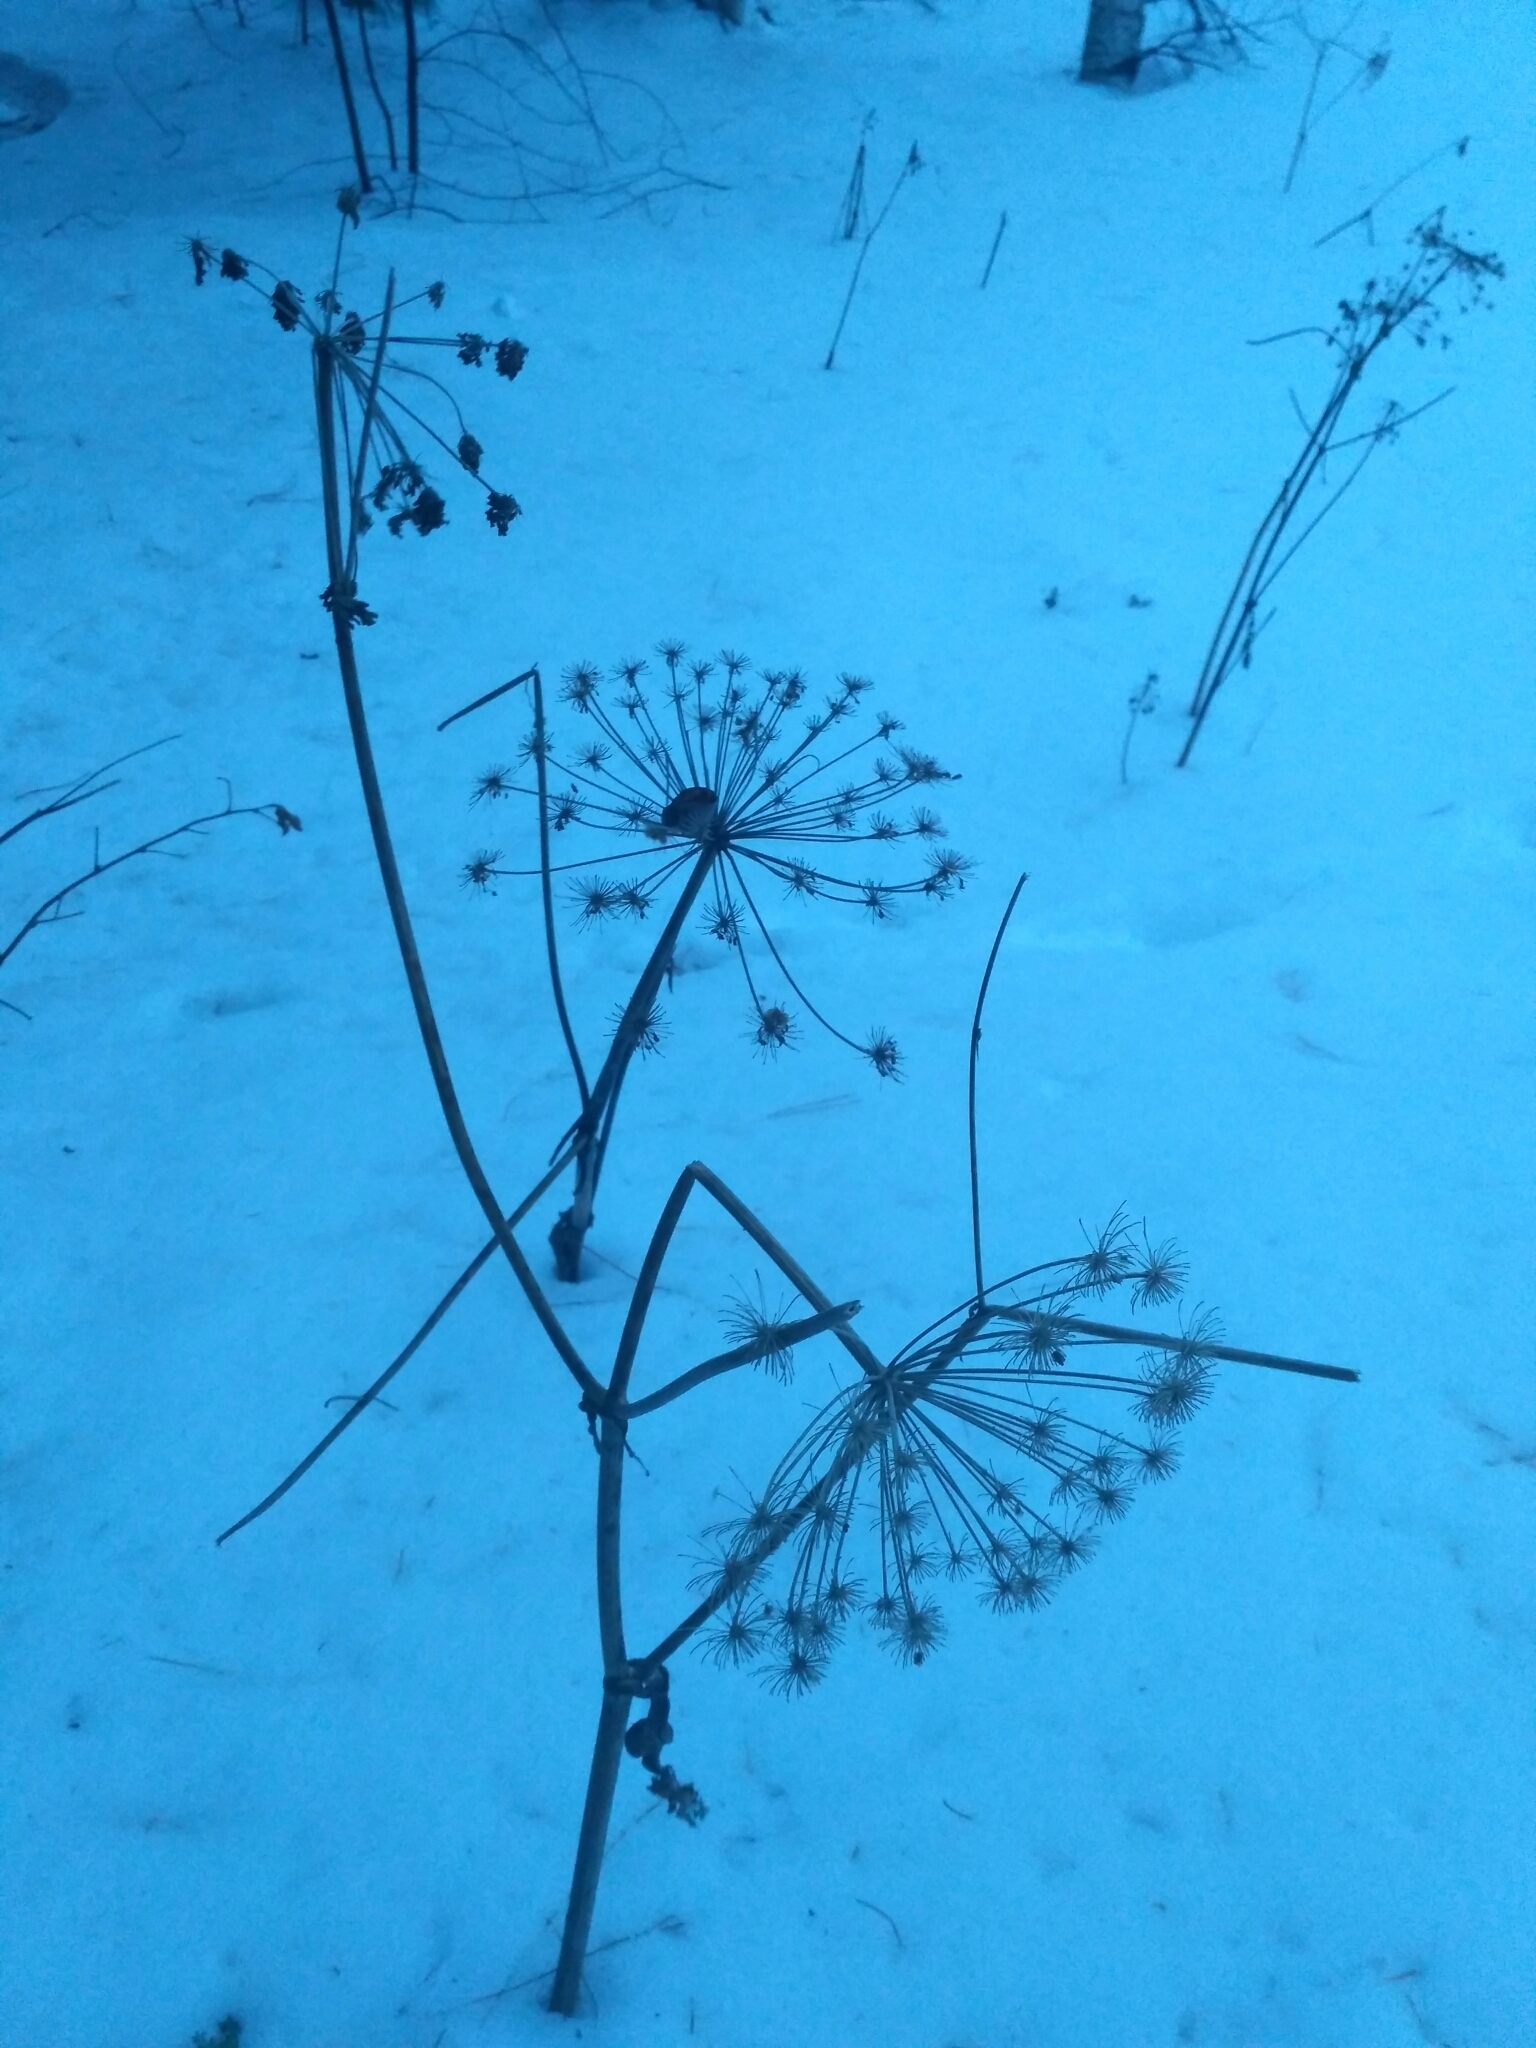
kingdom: Plantae
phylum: Tracheophyta
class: Magnoliopsida
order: Apiales
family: Apiaceae
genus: Angelica
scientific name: Angelica sylvestris
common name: Wild angelica
